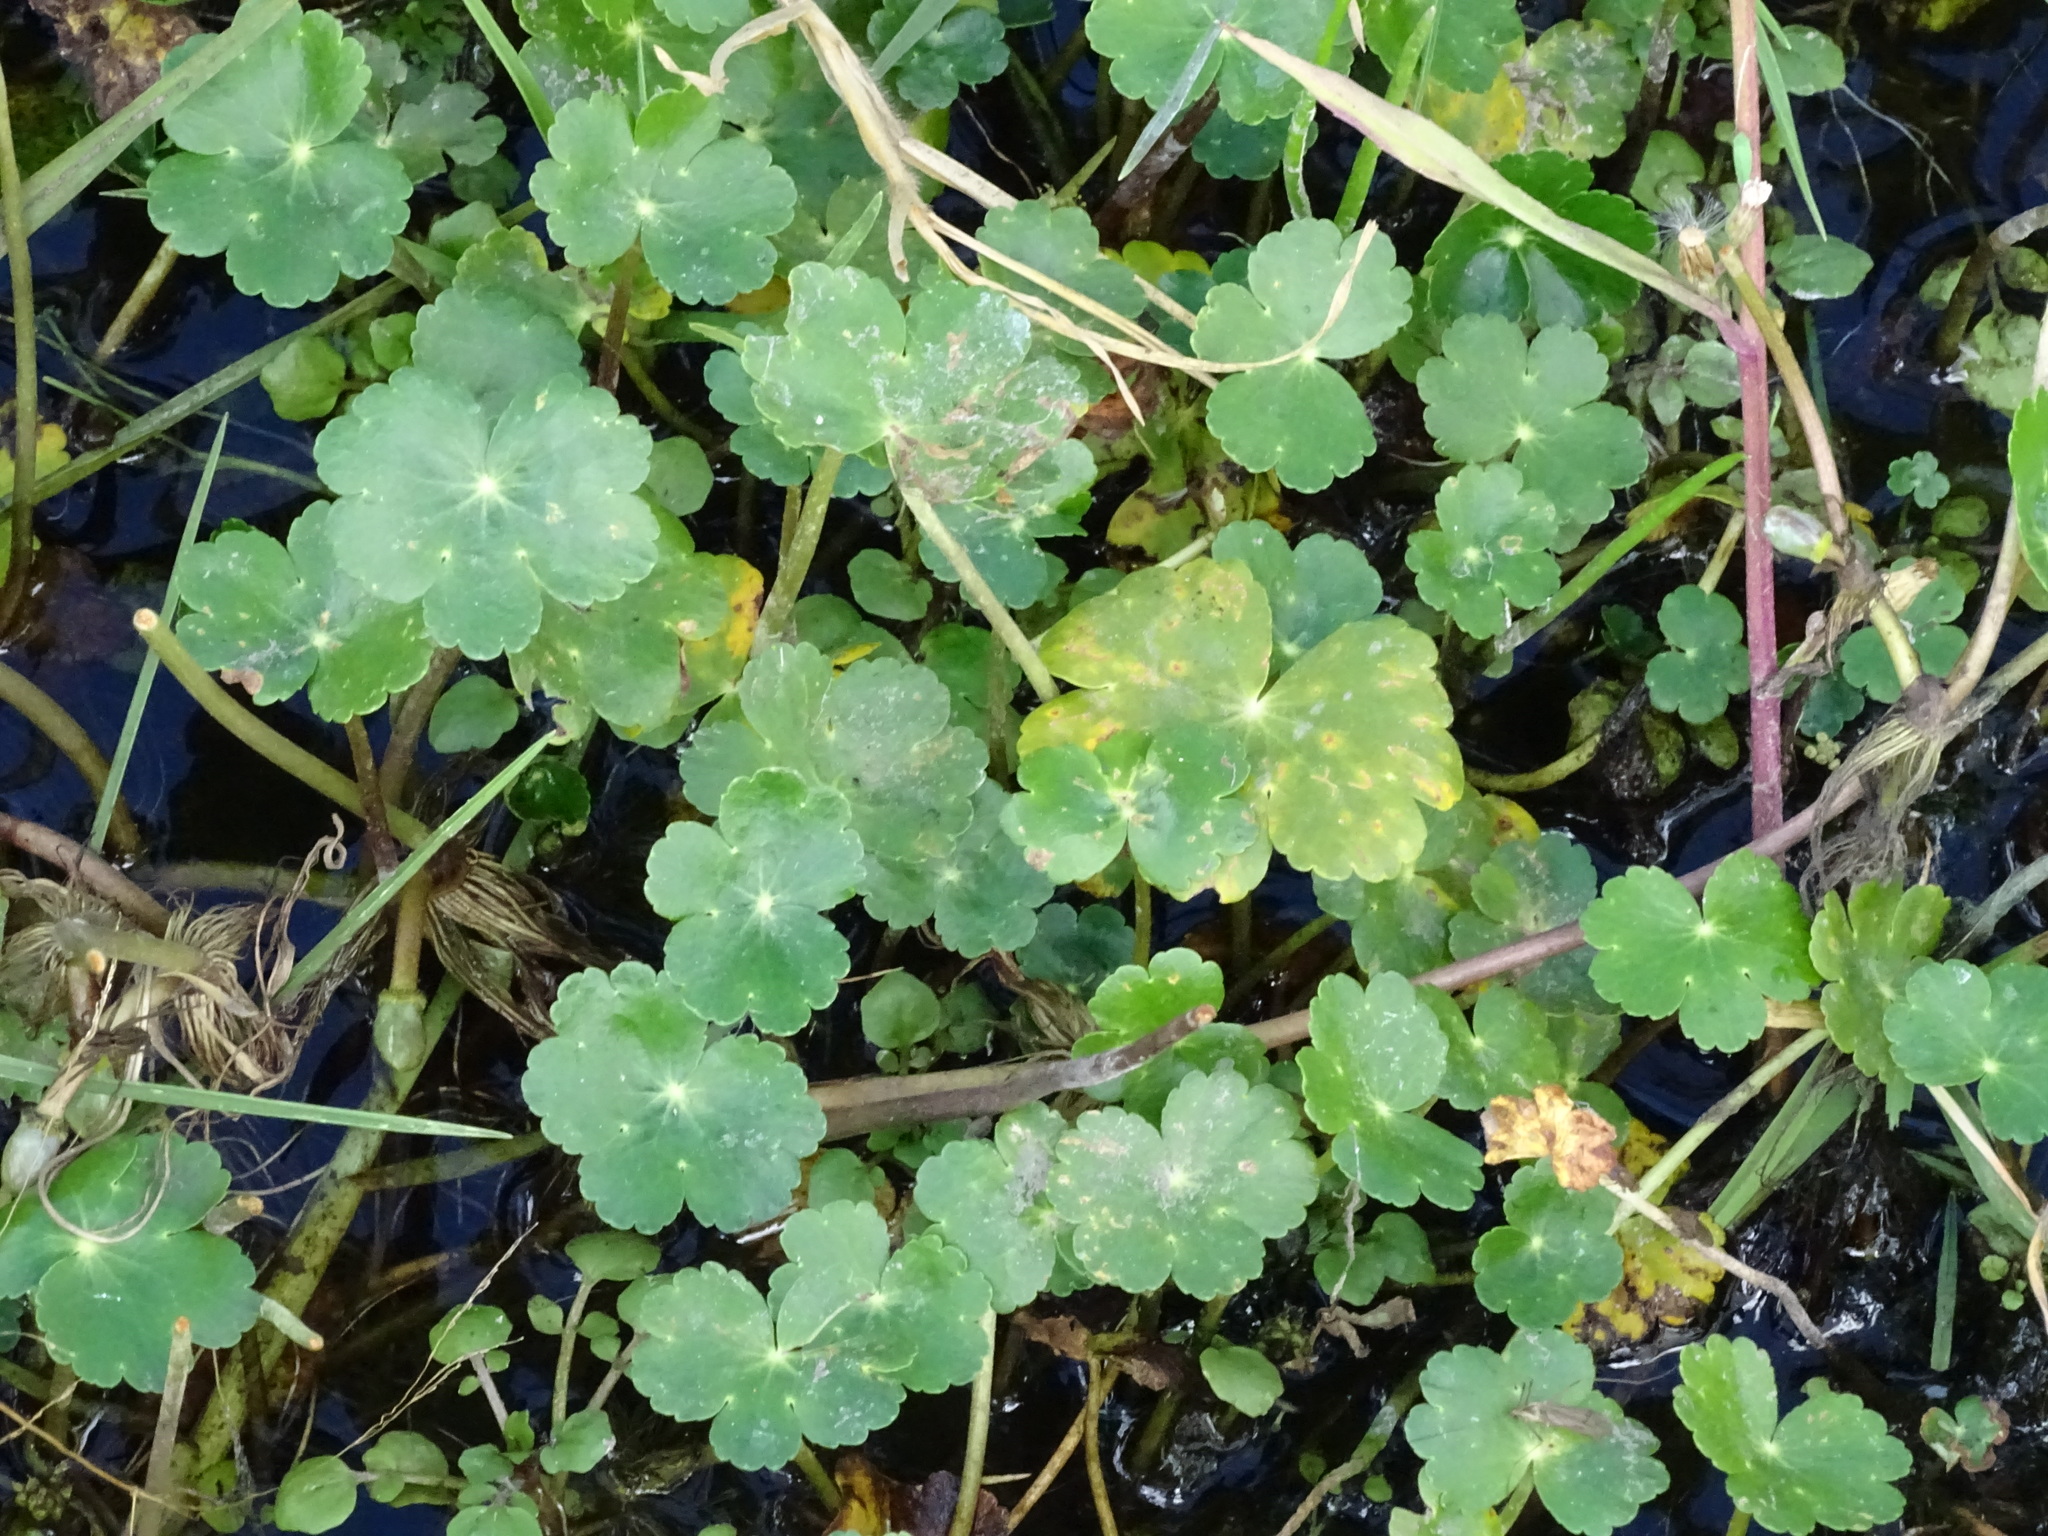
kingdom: Plantae
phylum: Tracheophyta
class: Magnoliopsida
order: Apiales
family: Araliaceae
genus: Hydrocotyle
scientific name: Hydrocotyle ranunculoides
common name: Floating pennywort
